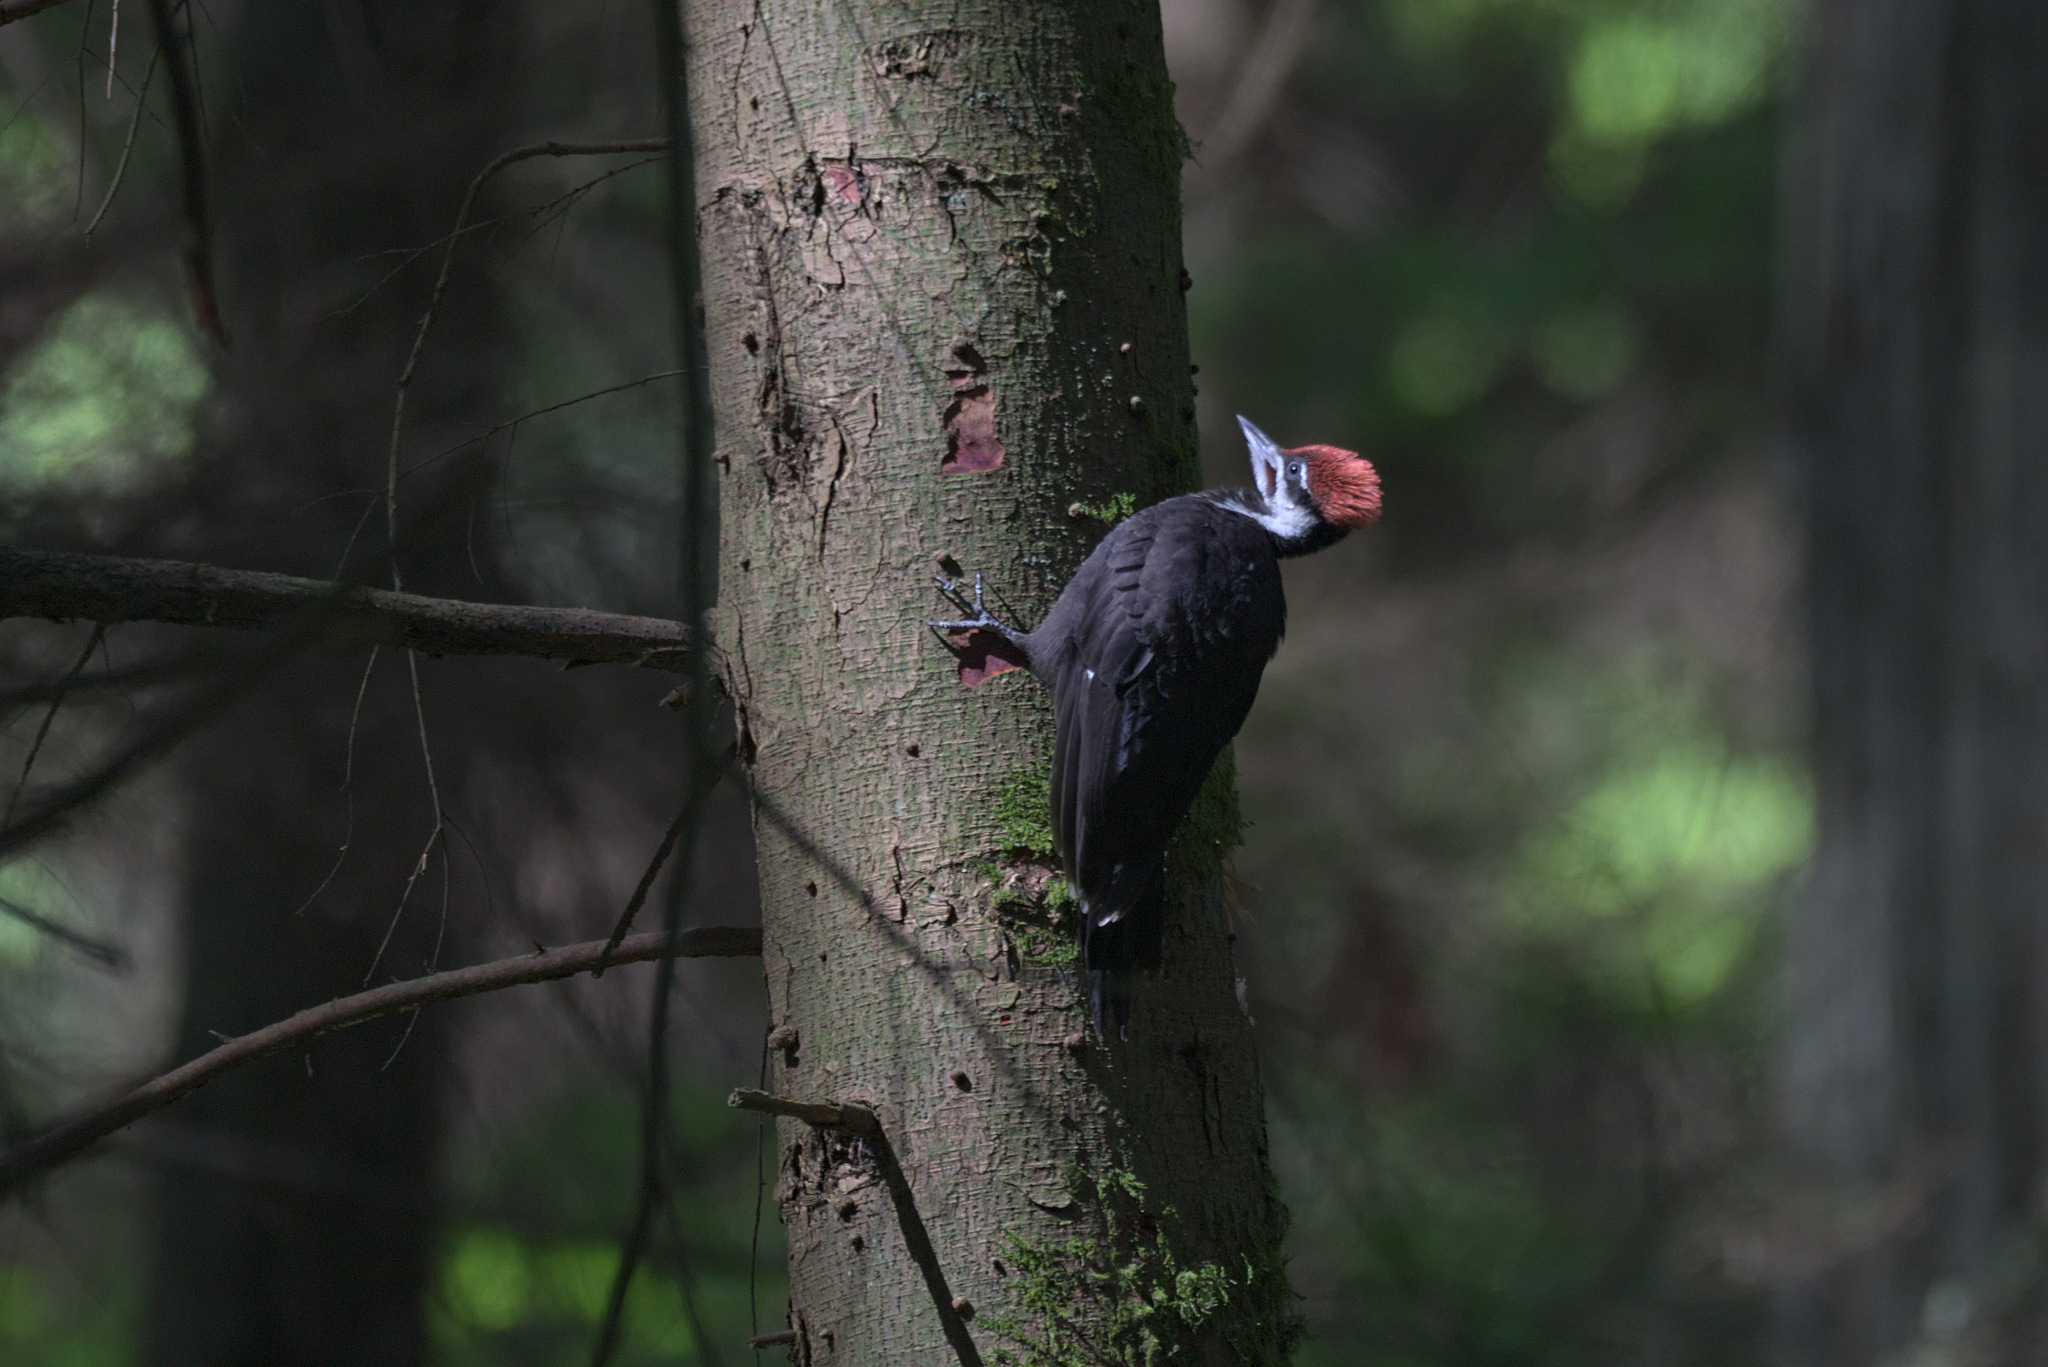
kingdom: Animalia
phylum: Chordata
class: Aves
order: Piciformes
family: Picidae
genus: Dryocopus
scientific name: Dryocopus pileatus
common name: Pileated woodpecker
